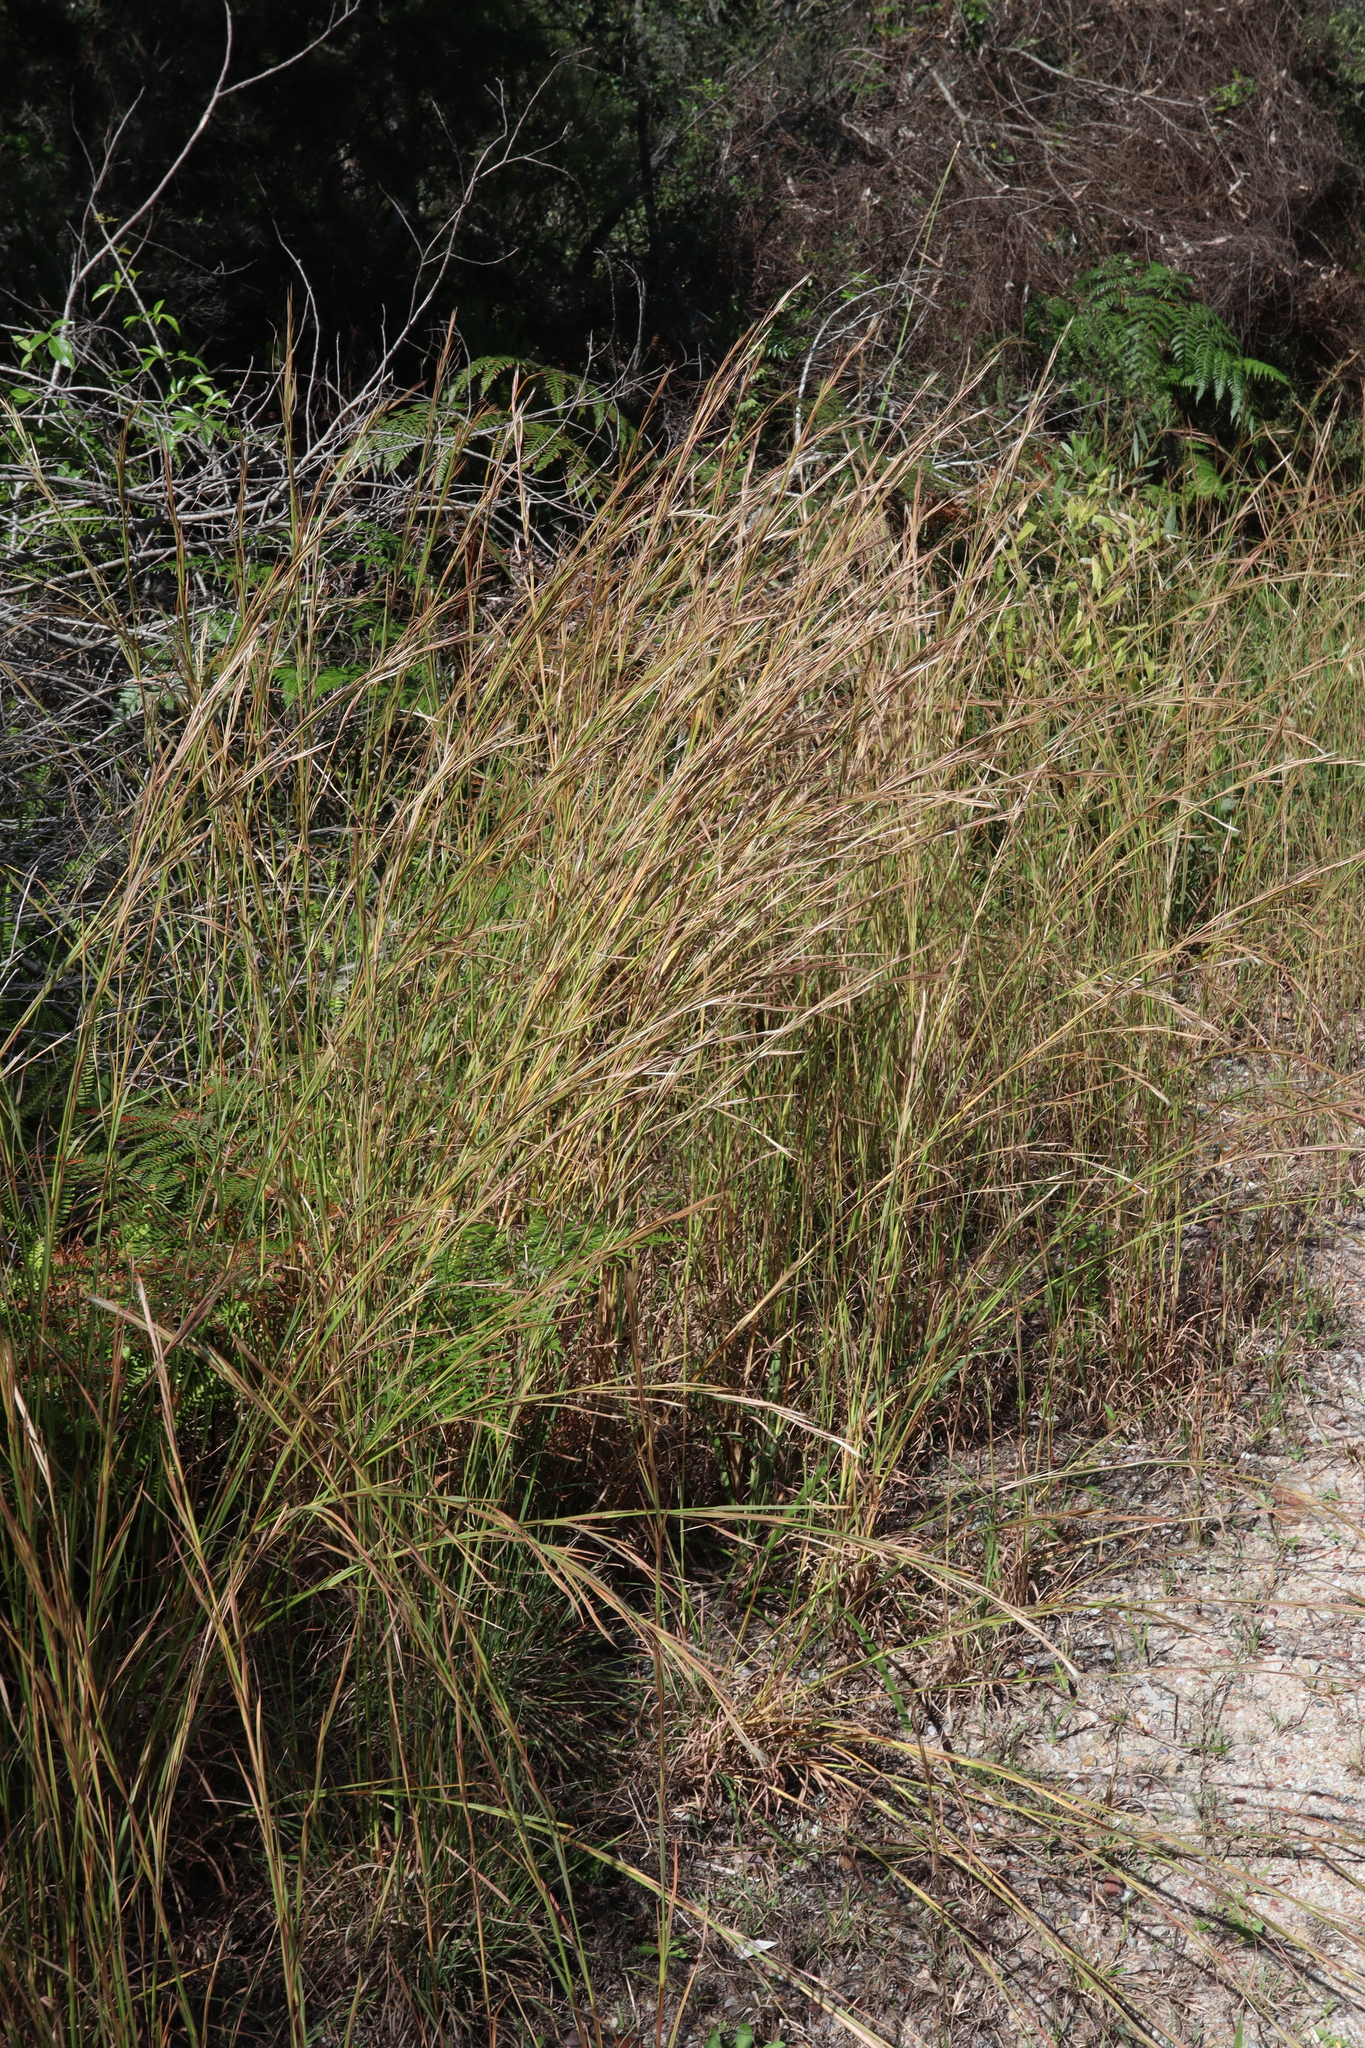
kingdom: Plantae
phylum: Tracheophyta
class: Liliopsida
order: Poales
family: Poaceae
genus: Andropogon
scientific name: Andropogon virginicus
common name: Broomsedge bluestem
